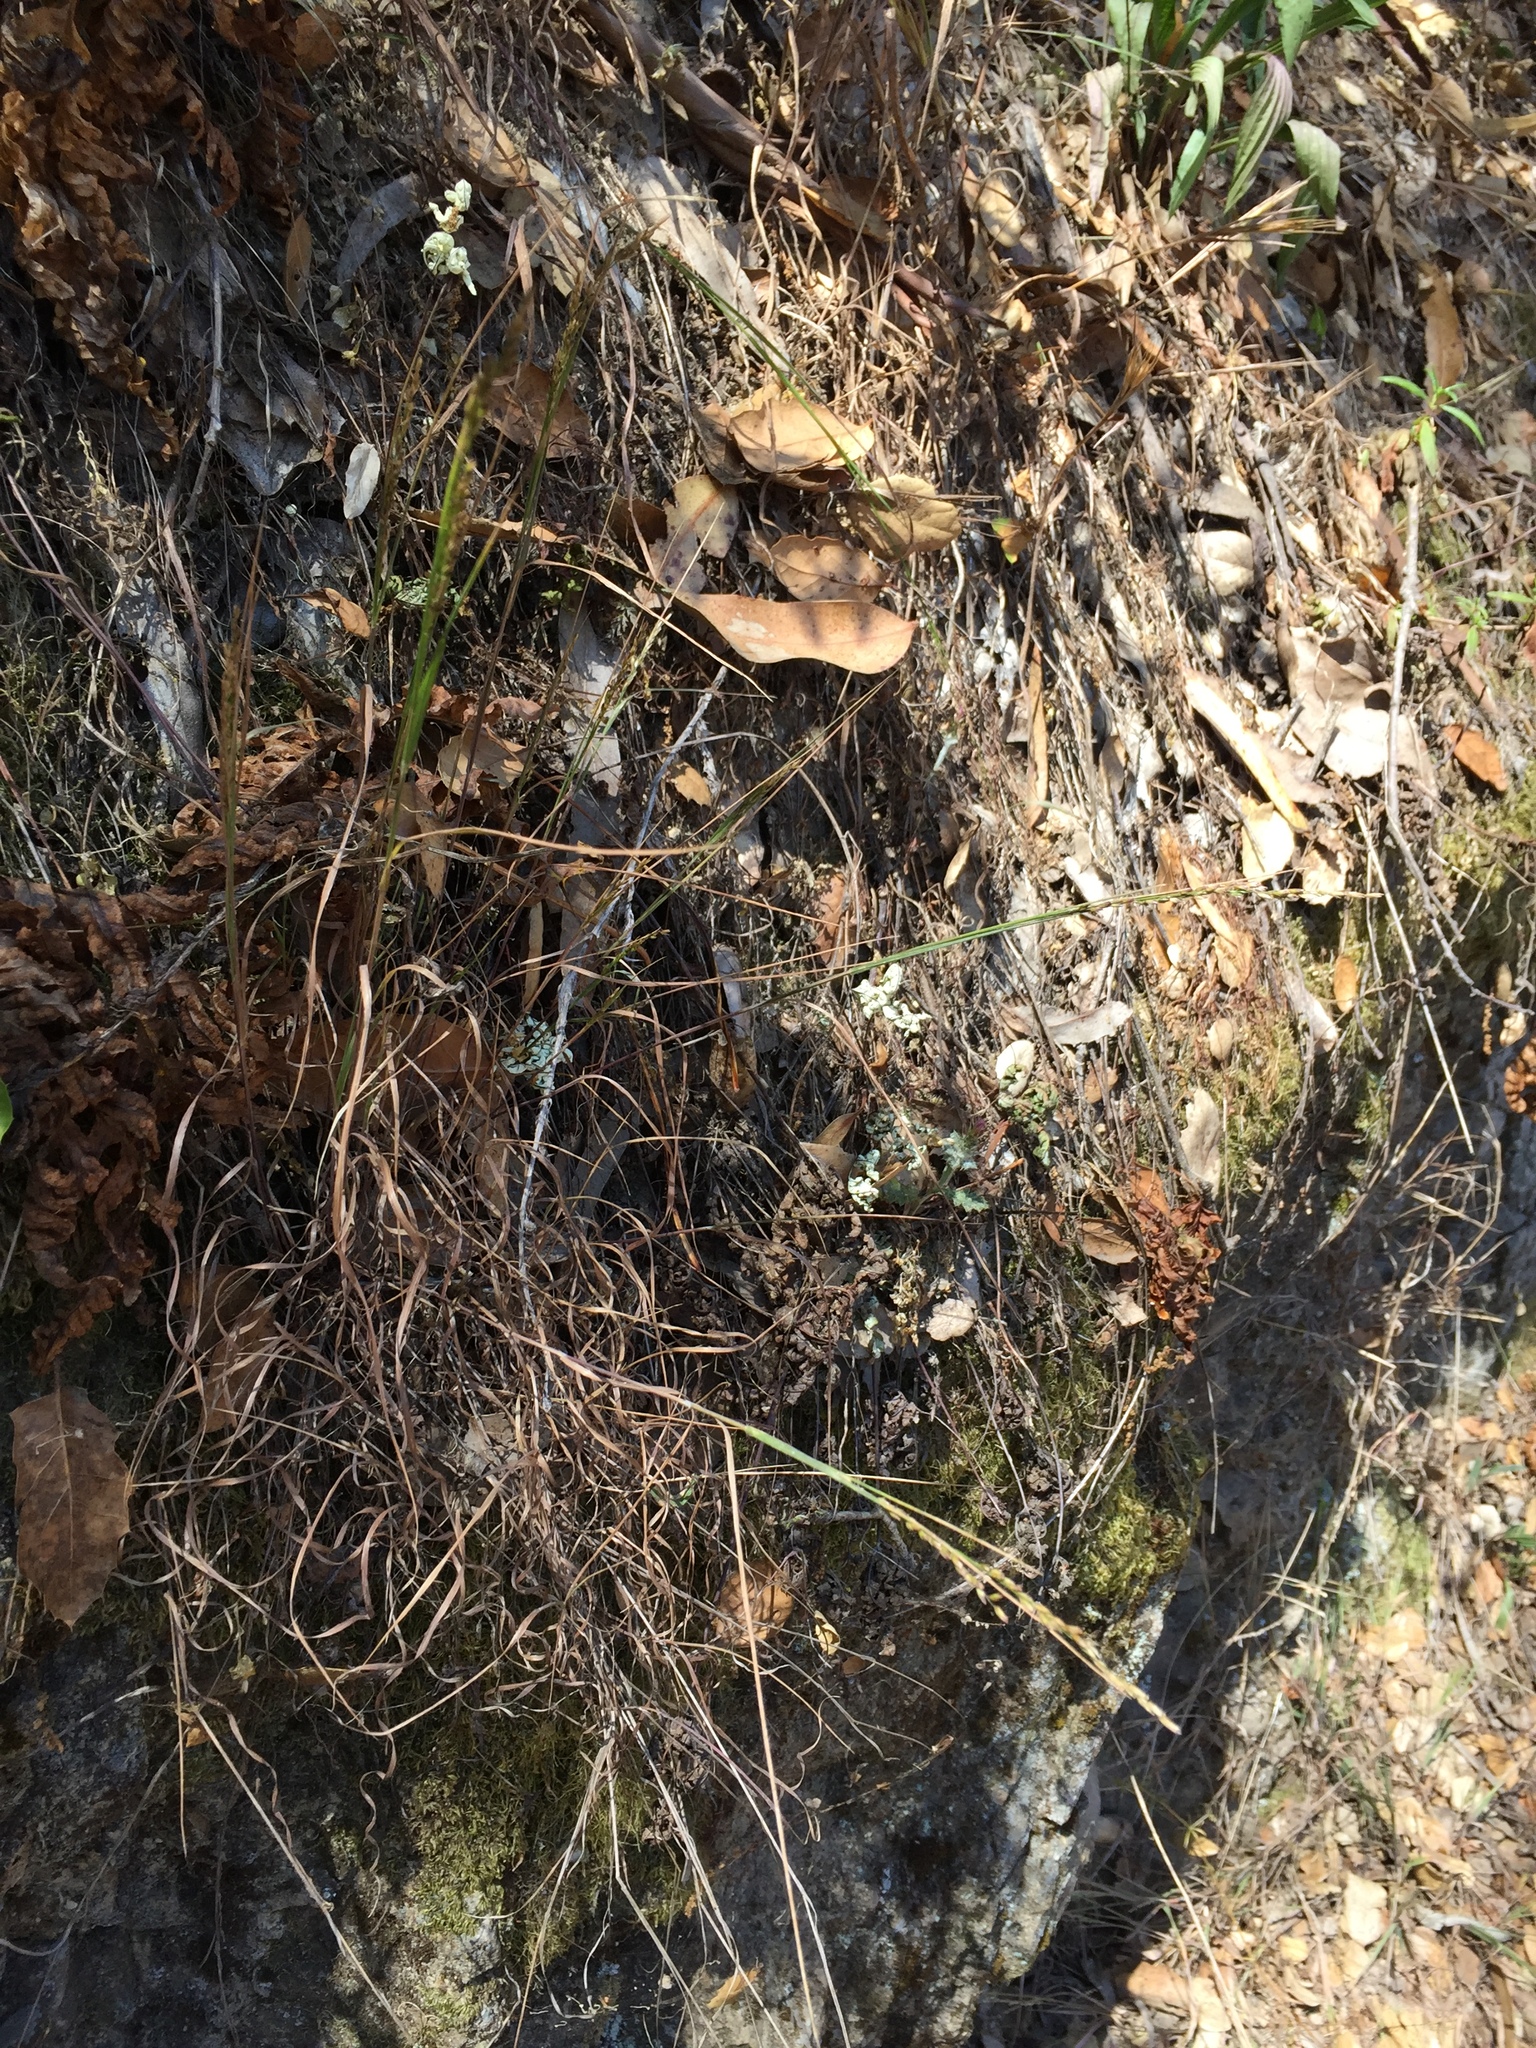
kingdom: Plantae
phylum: Tracheophyta
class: Liliopsida
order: Poales
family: Poaceae
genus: Melica
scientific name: Melica torreyana
